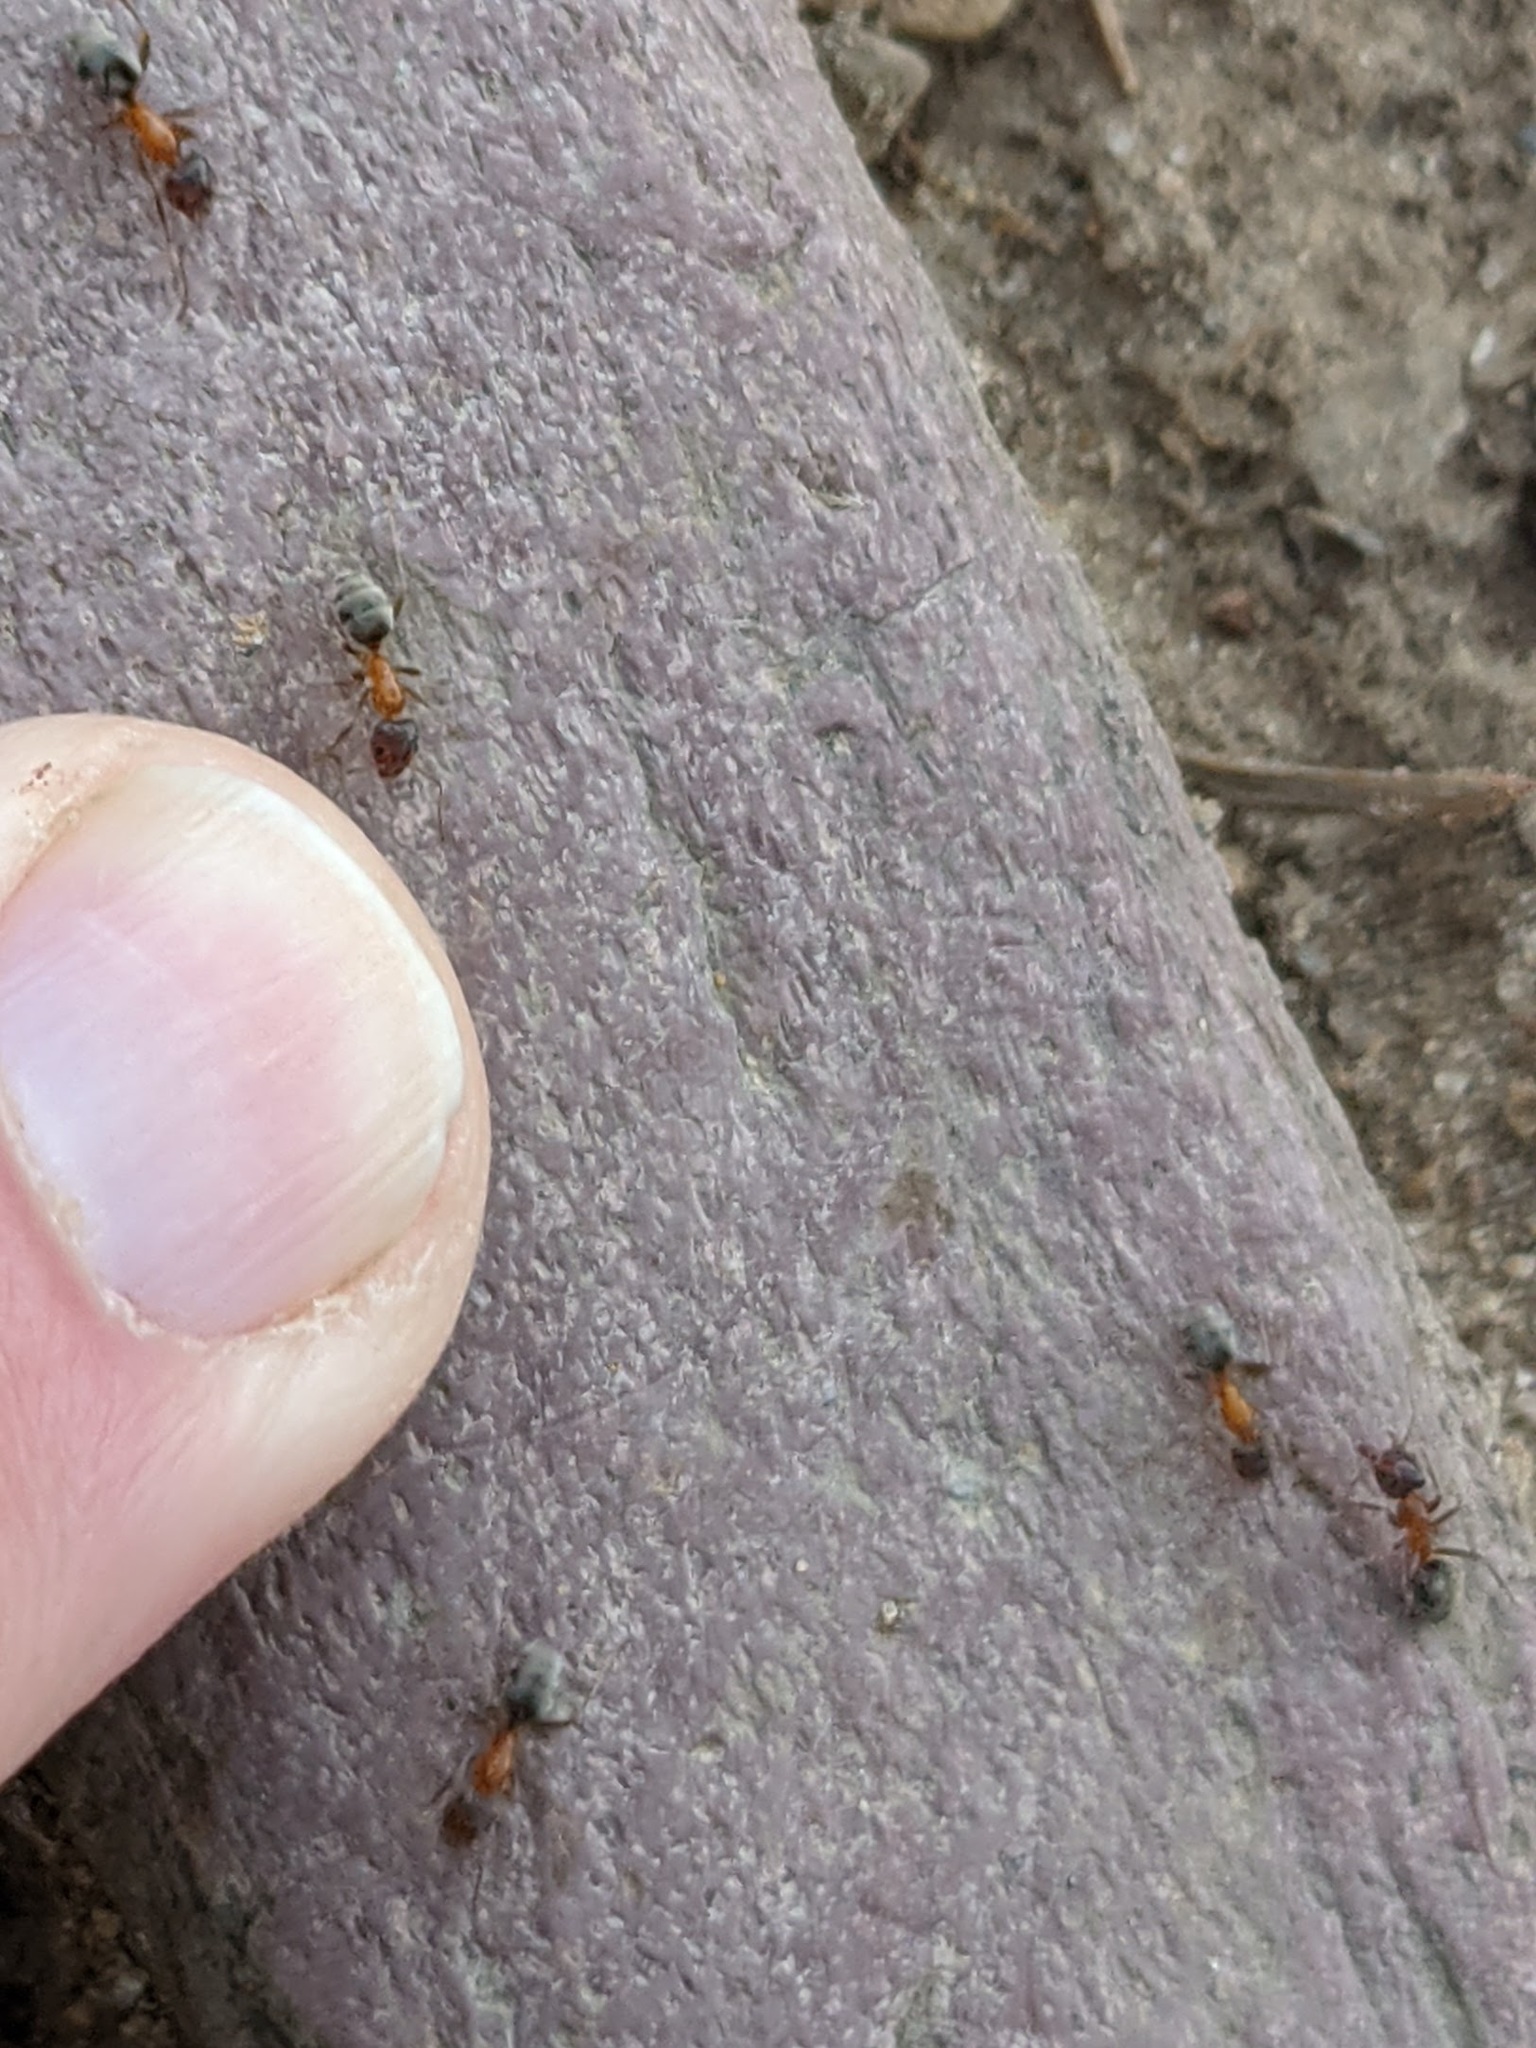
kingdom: Animalia
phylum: Arthropoda
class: Insecta
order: Hymenoptera
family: Formicidae
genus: Liometopum
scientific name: Liometopum occidentale
